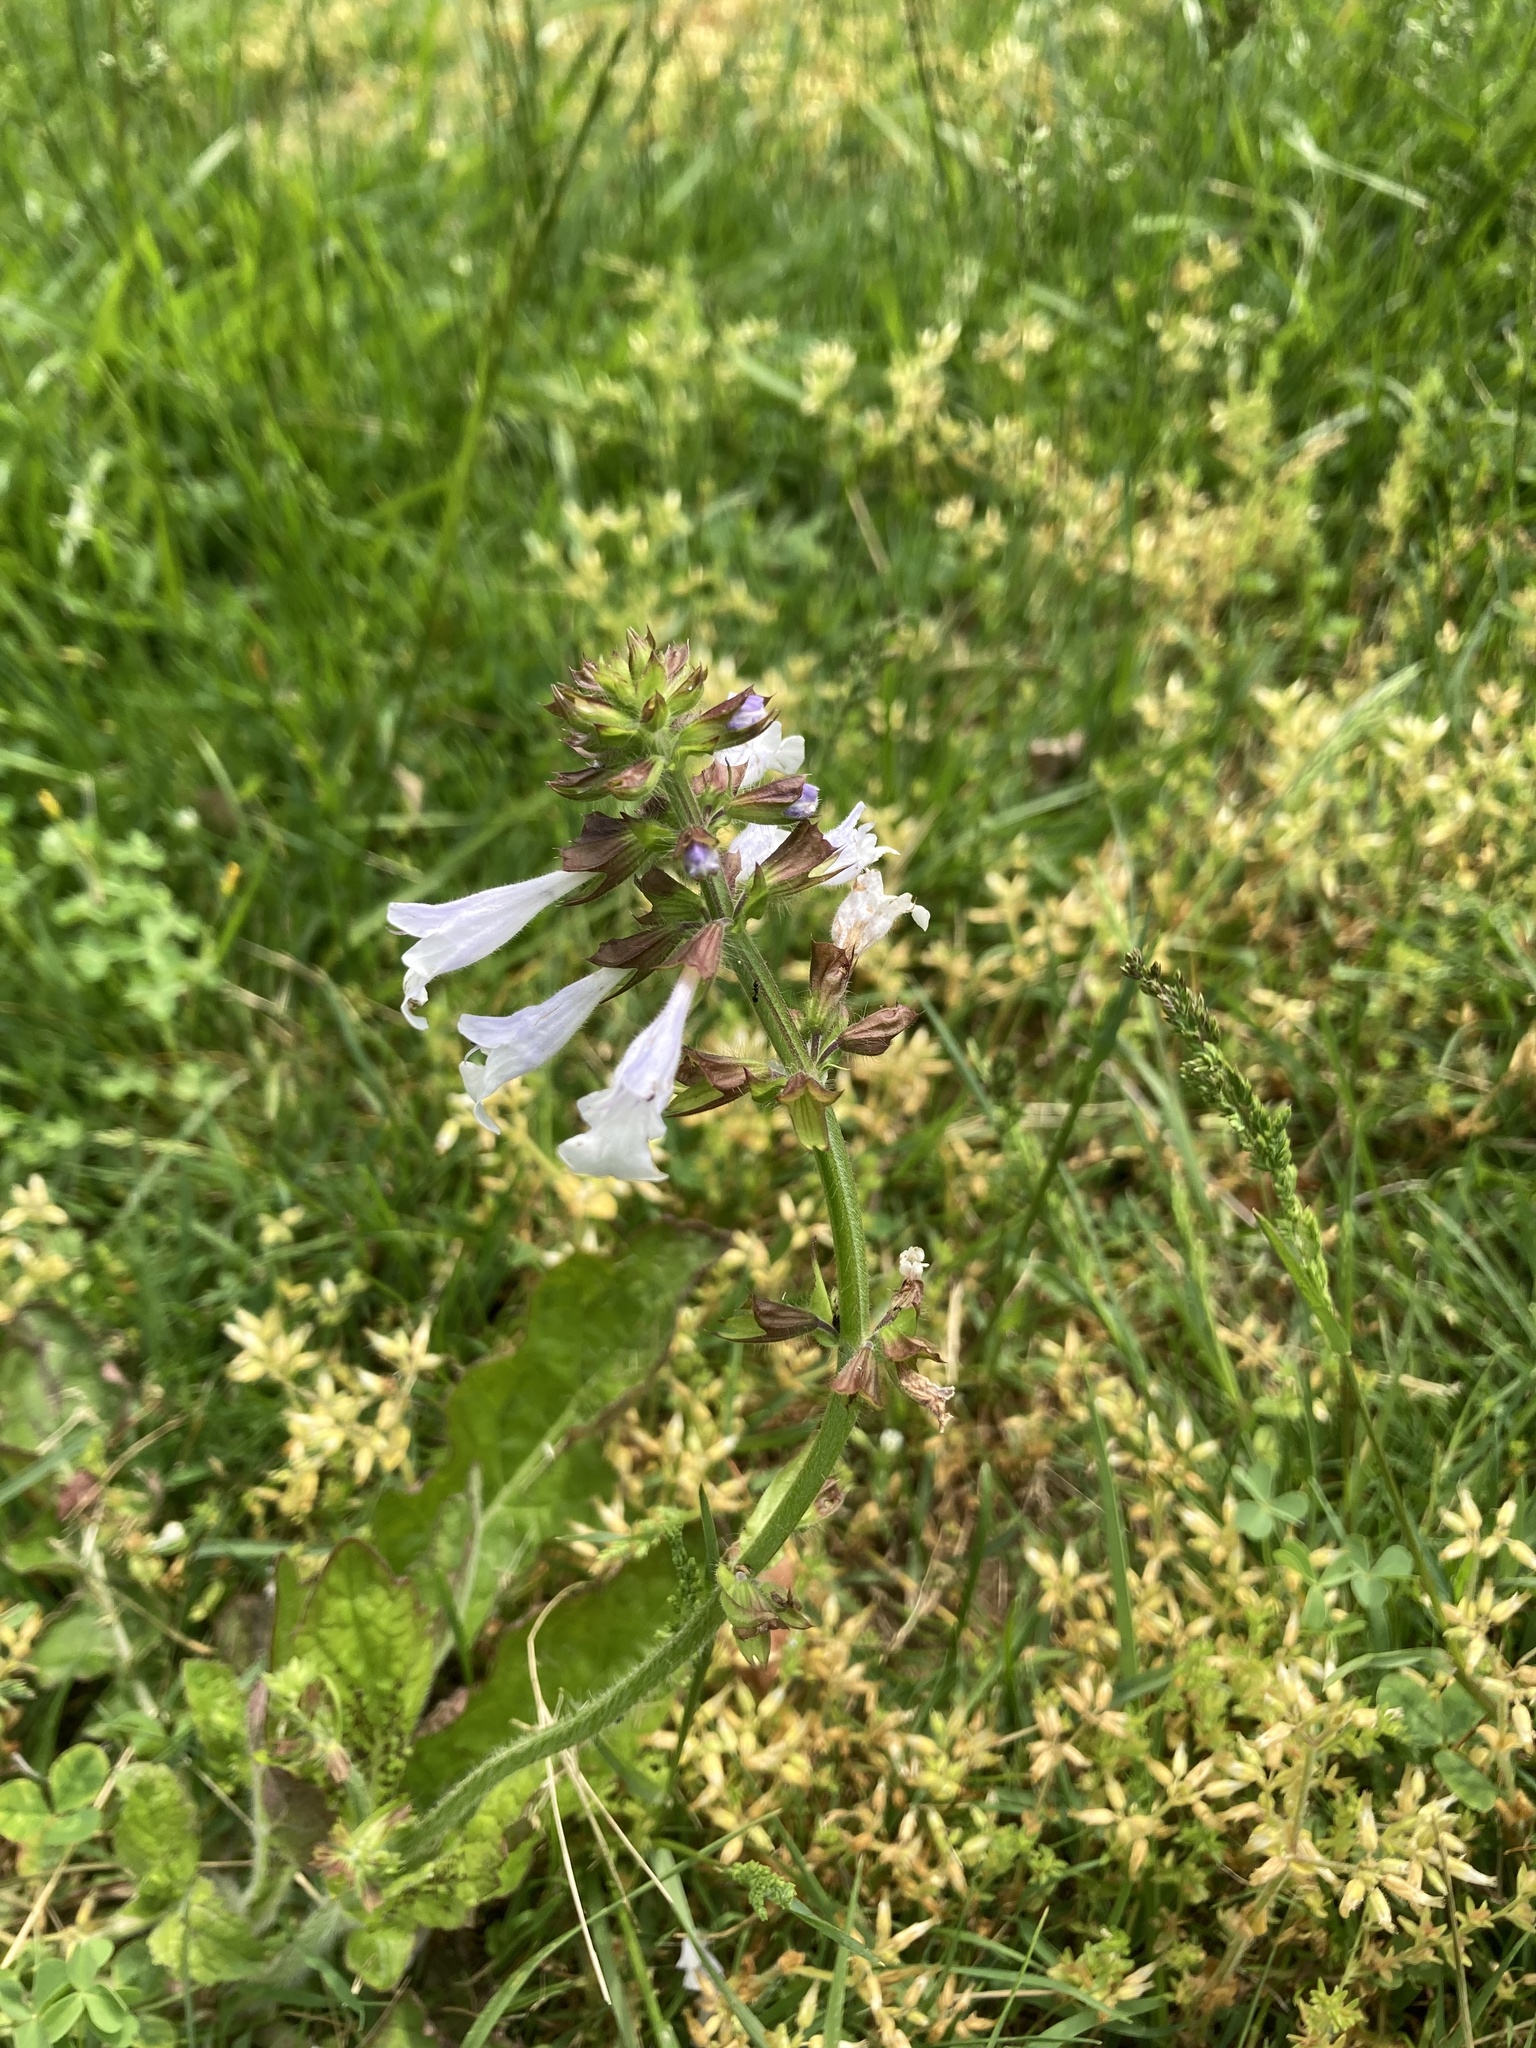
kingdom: Plantae
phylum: Tracheophyta
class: Magnoliopsida
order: Lamiales
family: Lamiaceae
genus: Salvia
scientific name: Salvia lyrata
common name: Cancerweed
